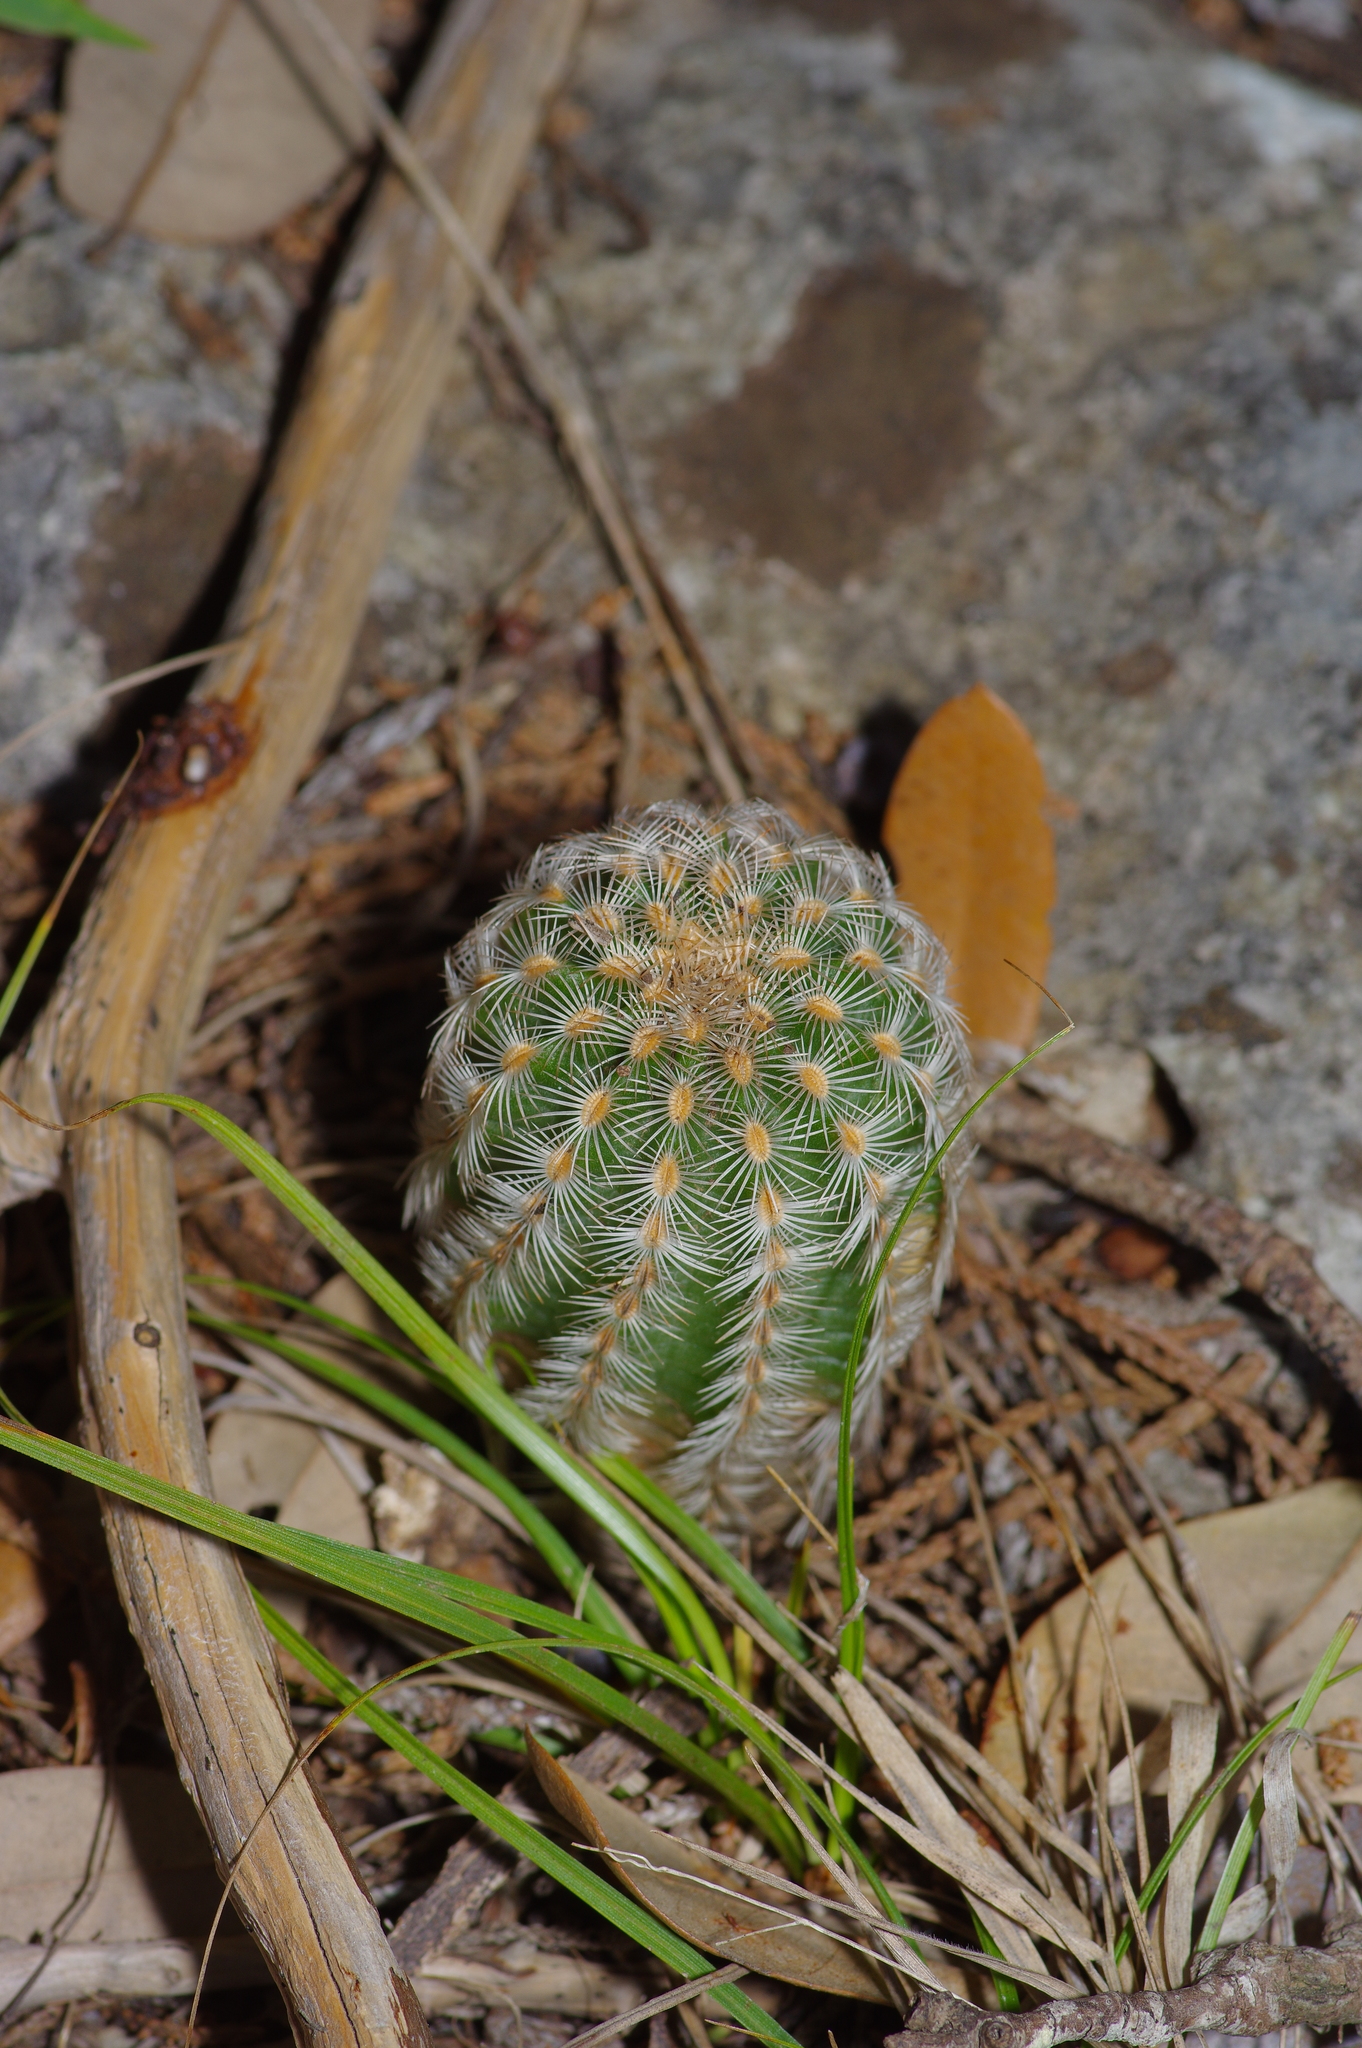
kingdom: Plantae
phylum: Tracheophyta
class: Magnoliopsida
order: Caryophyllales
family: Cactaceae
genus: Echinocereus
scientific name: Echinocereus reichenbachii
